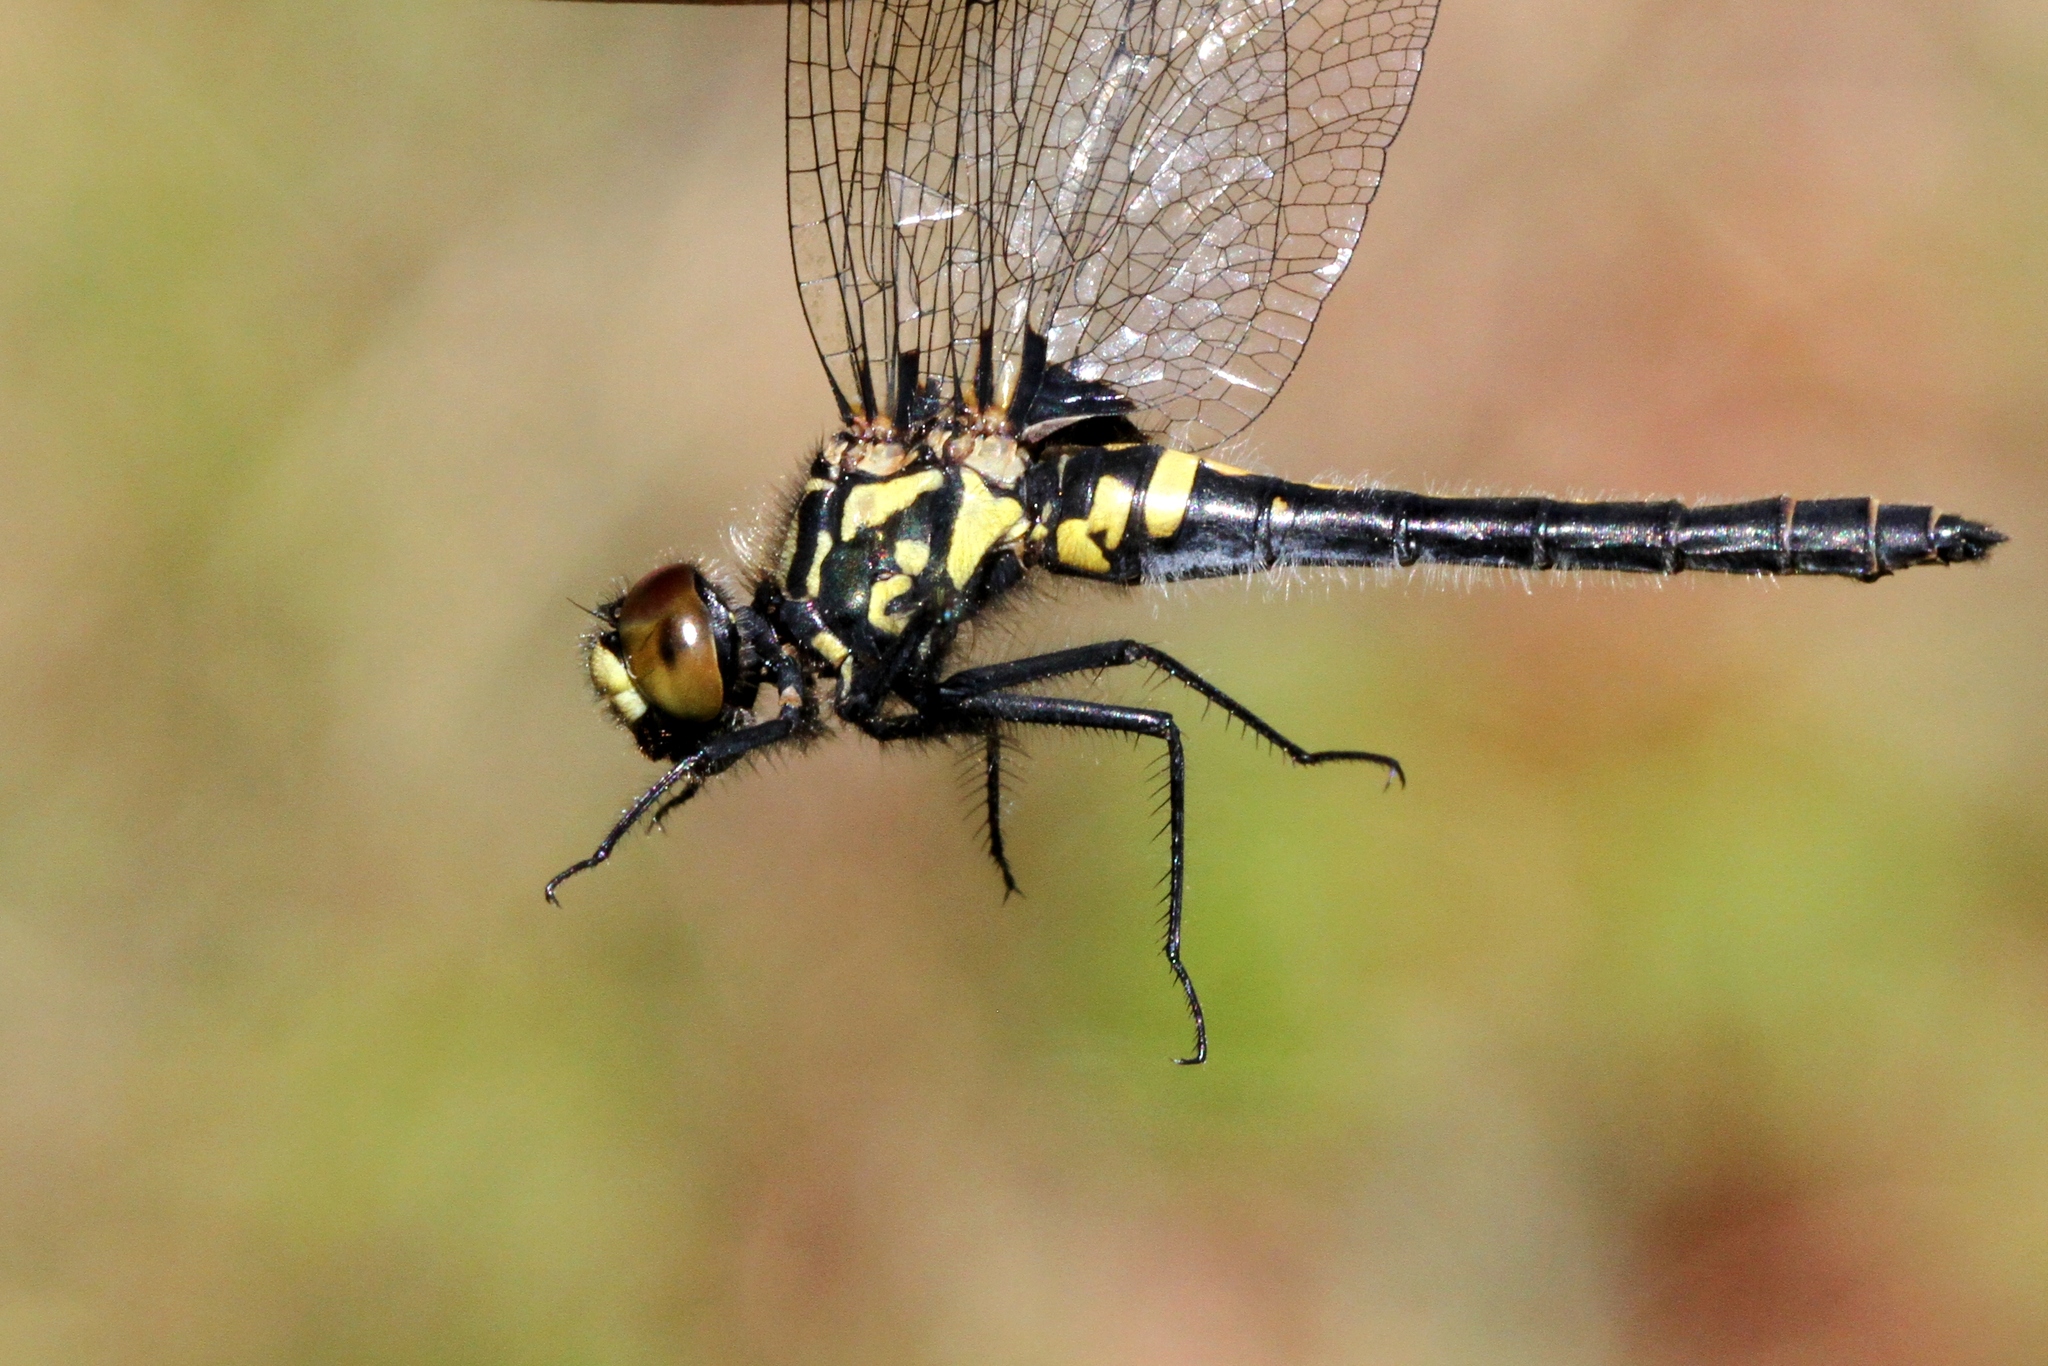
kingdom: Animalia
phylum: Arthropoda
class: Insecta
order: Odonata
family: Libellulidae
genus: Leucorrhinia
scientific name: Leucorrhinia patricia
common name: Canada whiteface
